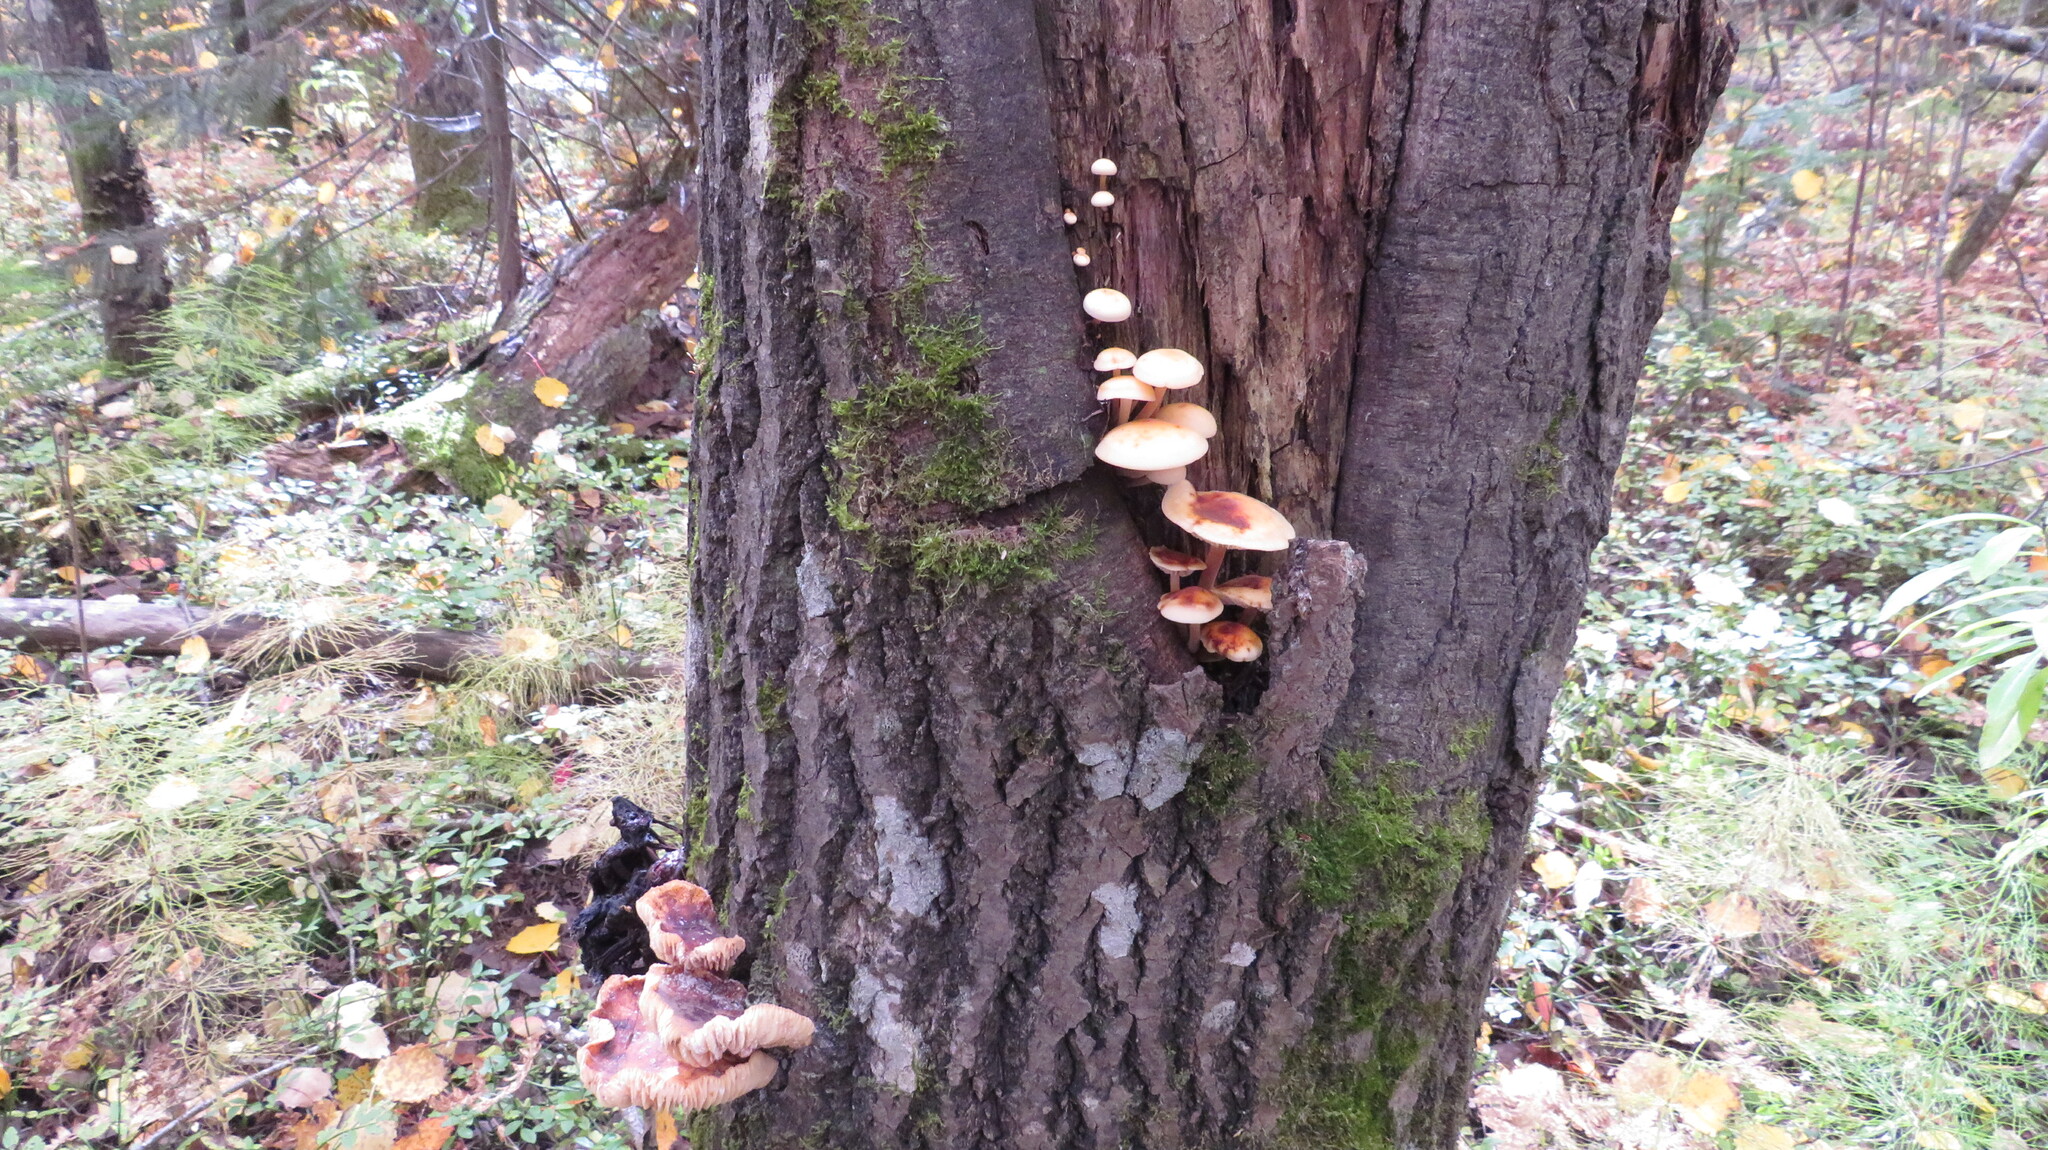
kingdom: Fungi
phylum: Basidiomycota
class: Agaricomycetes
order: Agaricales
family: Physalacriaceae
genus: Flammulina
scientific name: Flammulina velutipes
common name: Velvet shank
